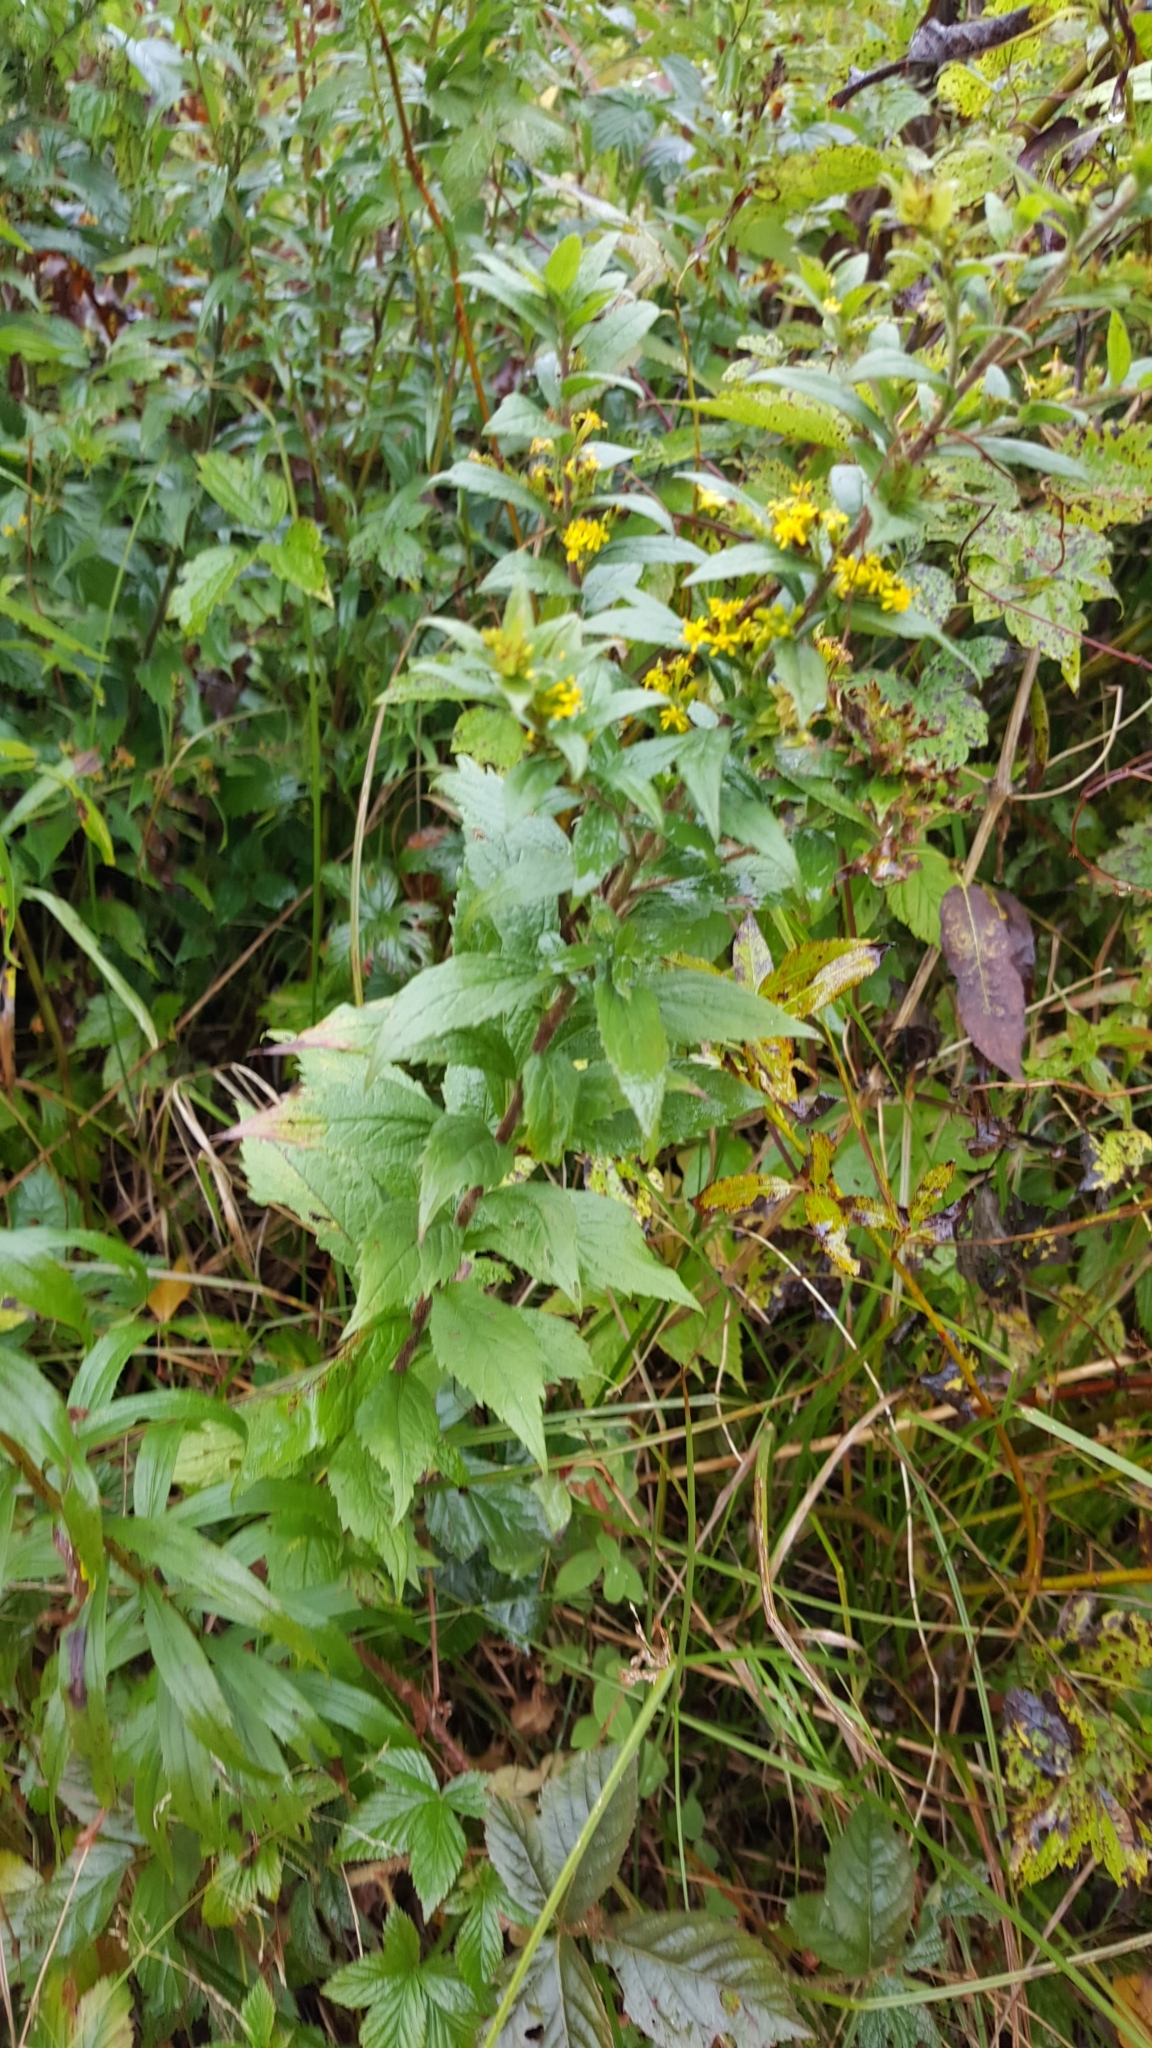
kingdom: Plantae
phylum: Tracheophyta
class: Magnoliopsida
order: Asterales
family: Asteraceae
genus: Solidago
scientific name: Solidago rugosa
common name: Rough-stemmed goldenrod
